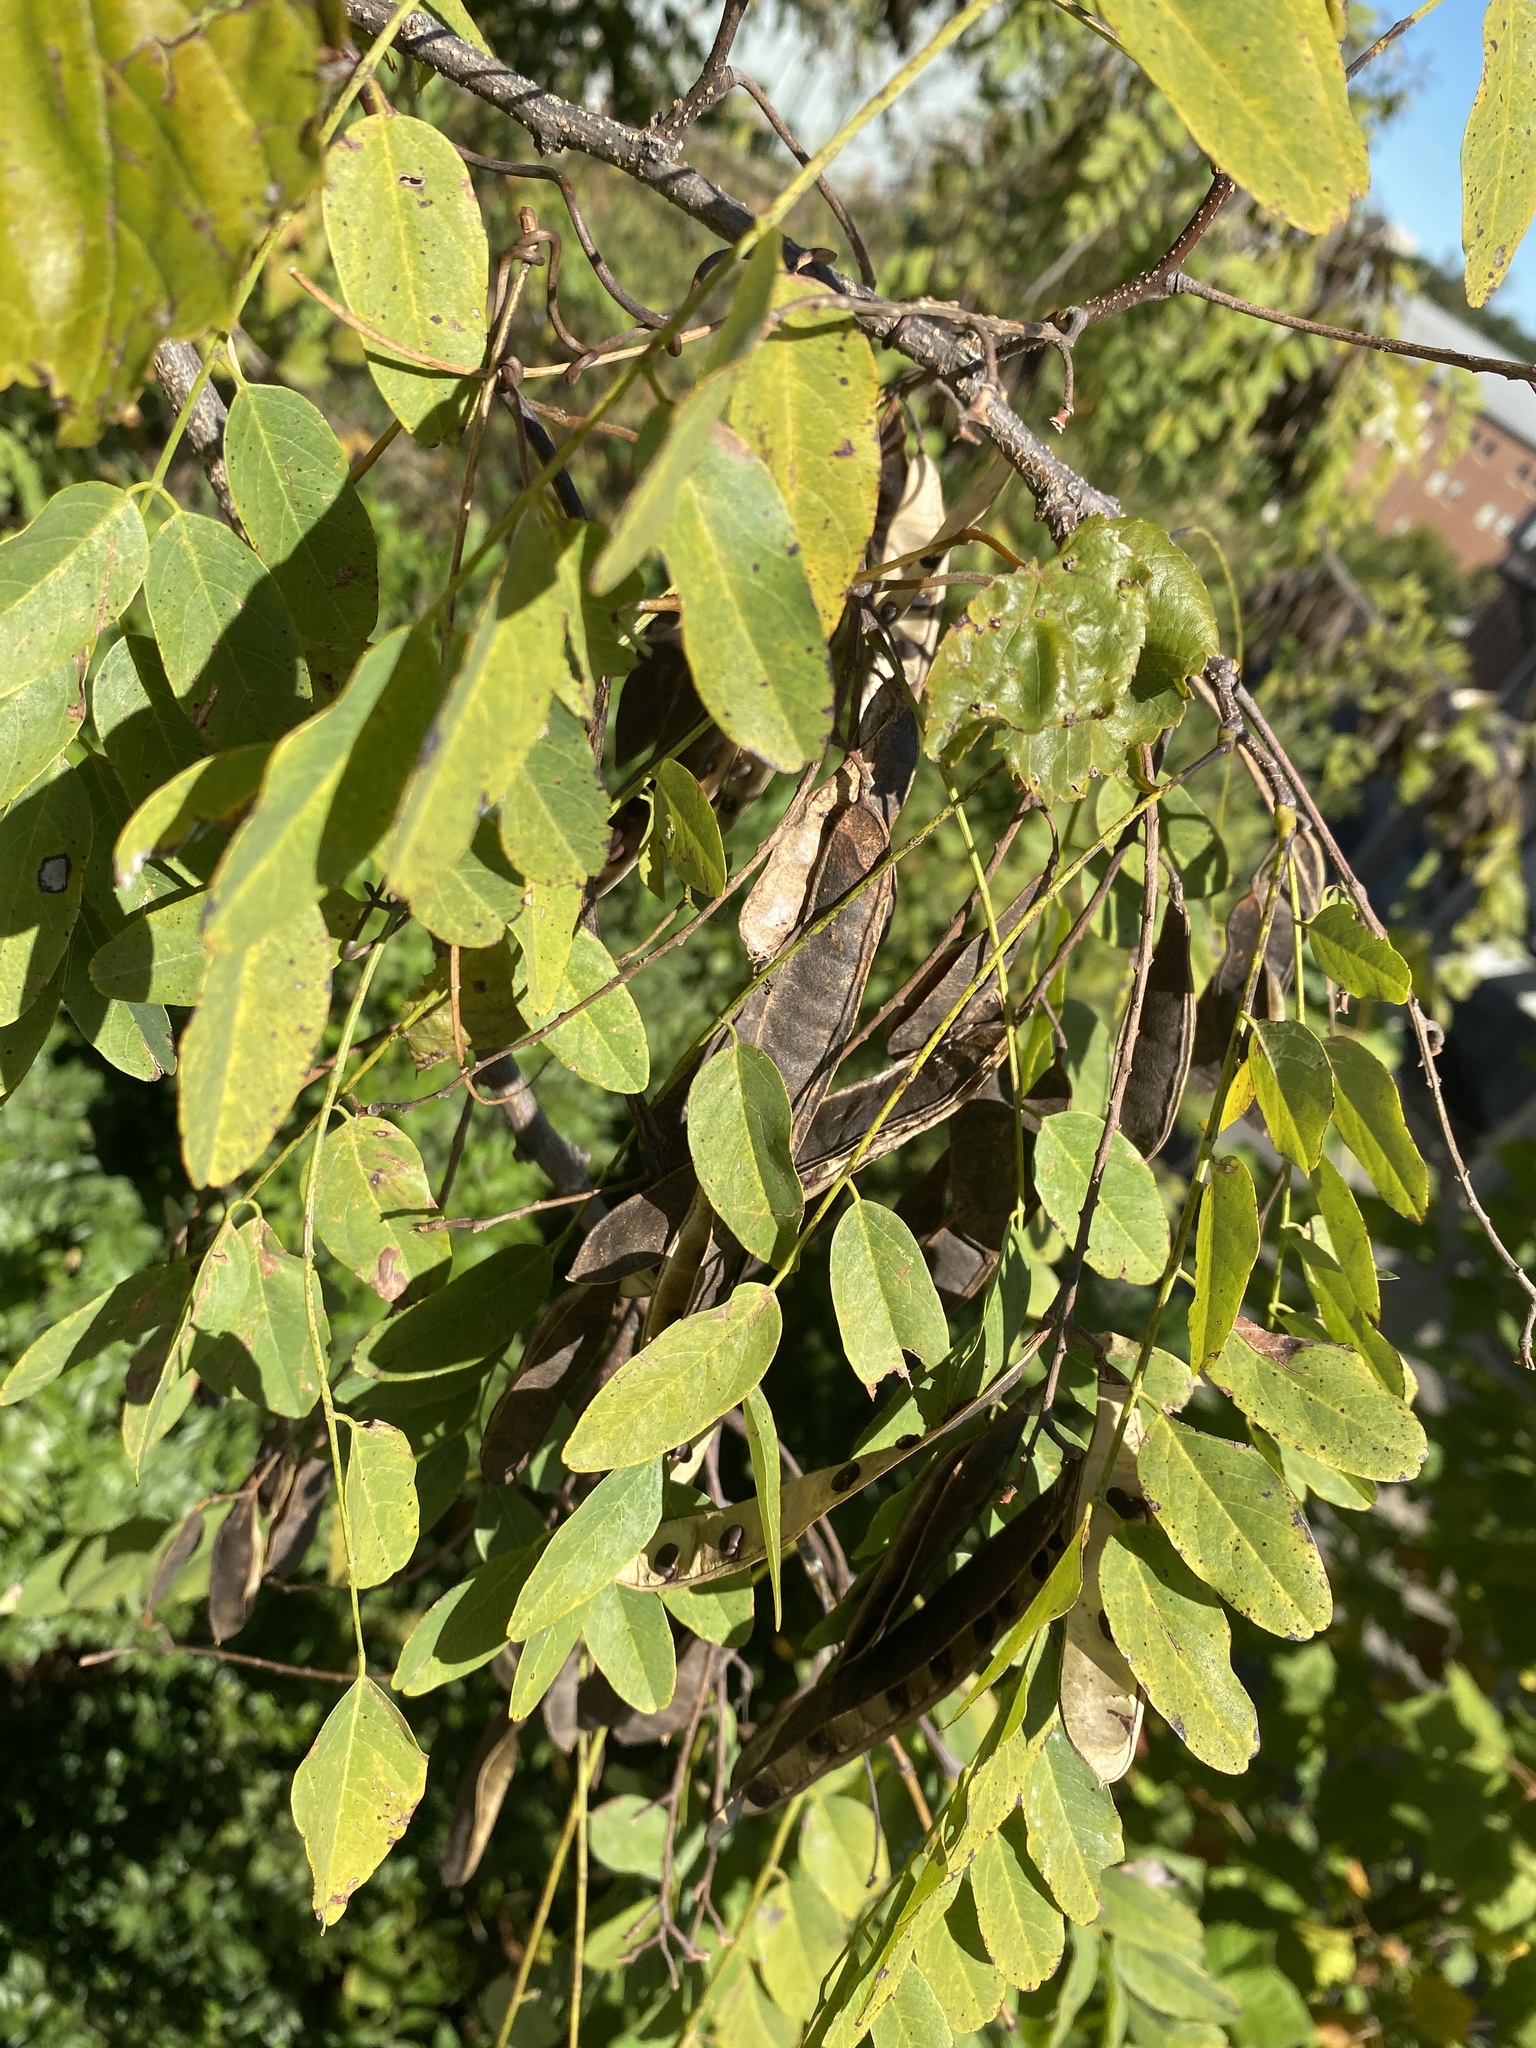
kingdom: Plantae
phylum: Tracheophyta
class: Magnoliopsida
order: Fabales
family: Fabaceae
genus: Robinia
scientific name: Robinia pseudoacacia
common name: Black locust
